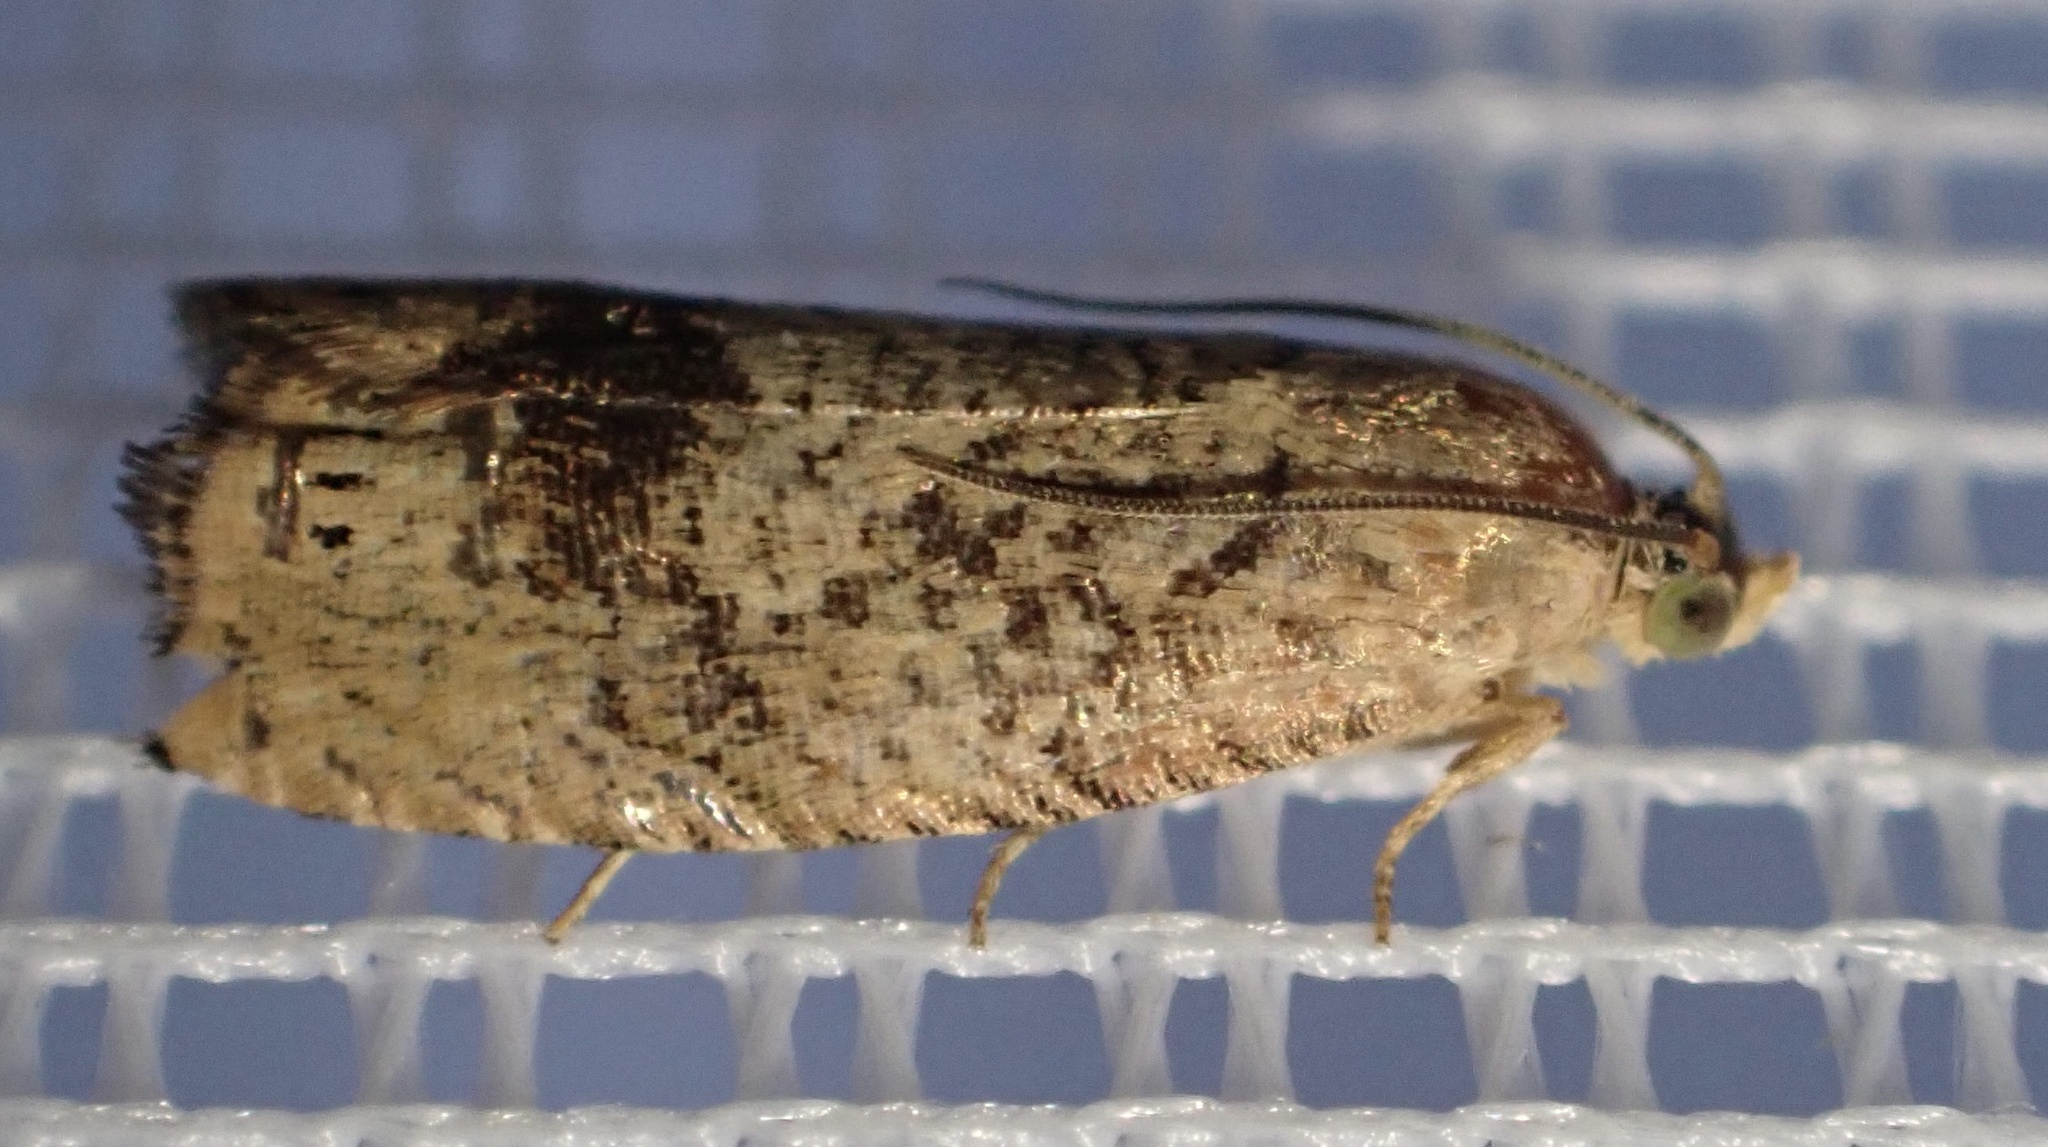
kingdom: Animalia
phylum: Arthropoda
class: Insecta
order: Lepidoptera
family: Tortricidae
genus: Cydia
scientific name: Cydia amplana
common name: Vagrant piercer
